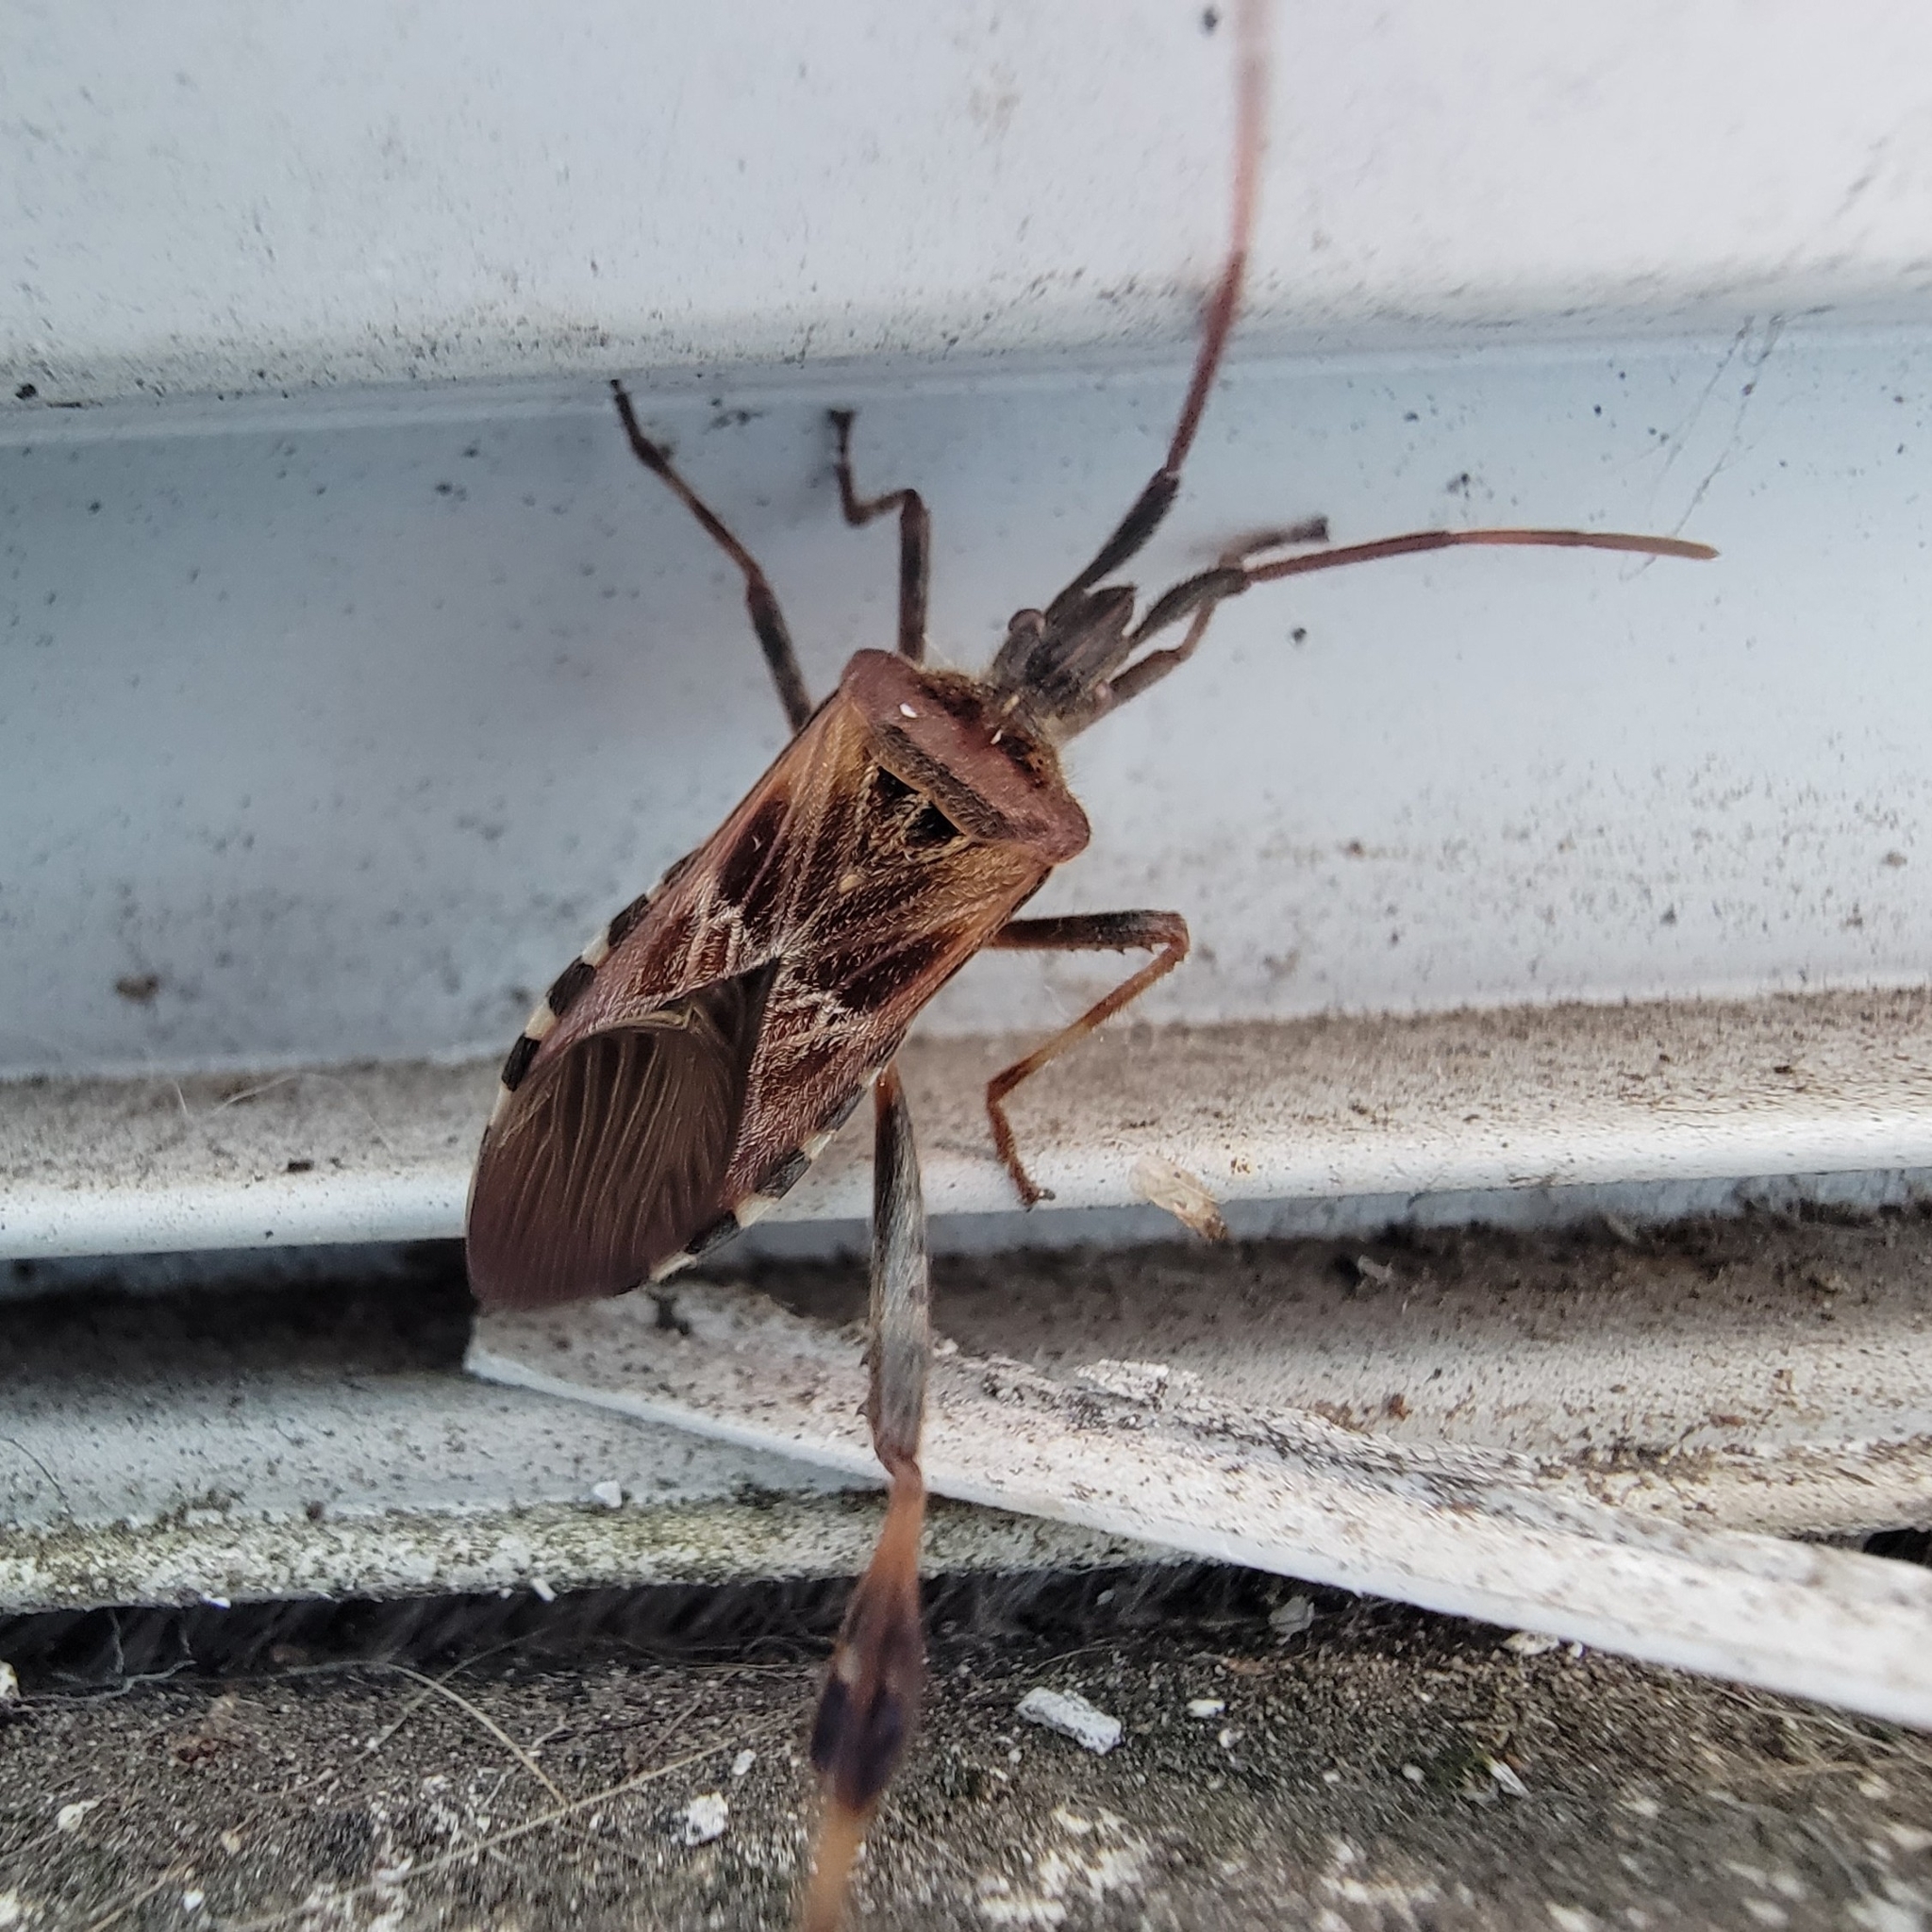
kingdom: Animalia
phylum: Arthropoda
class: Insecta
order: Hemiptera
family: Coreidae
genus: Leptoglossus
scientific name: Leptoglossus occidentalis
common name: Western conifer-seed bug
